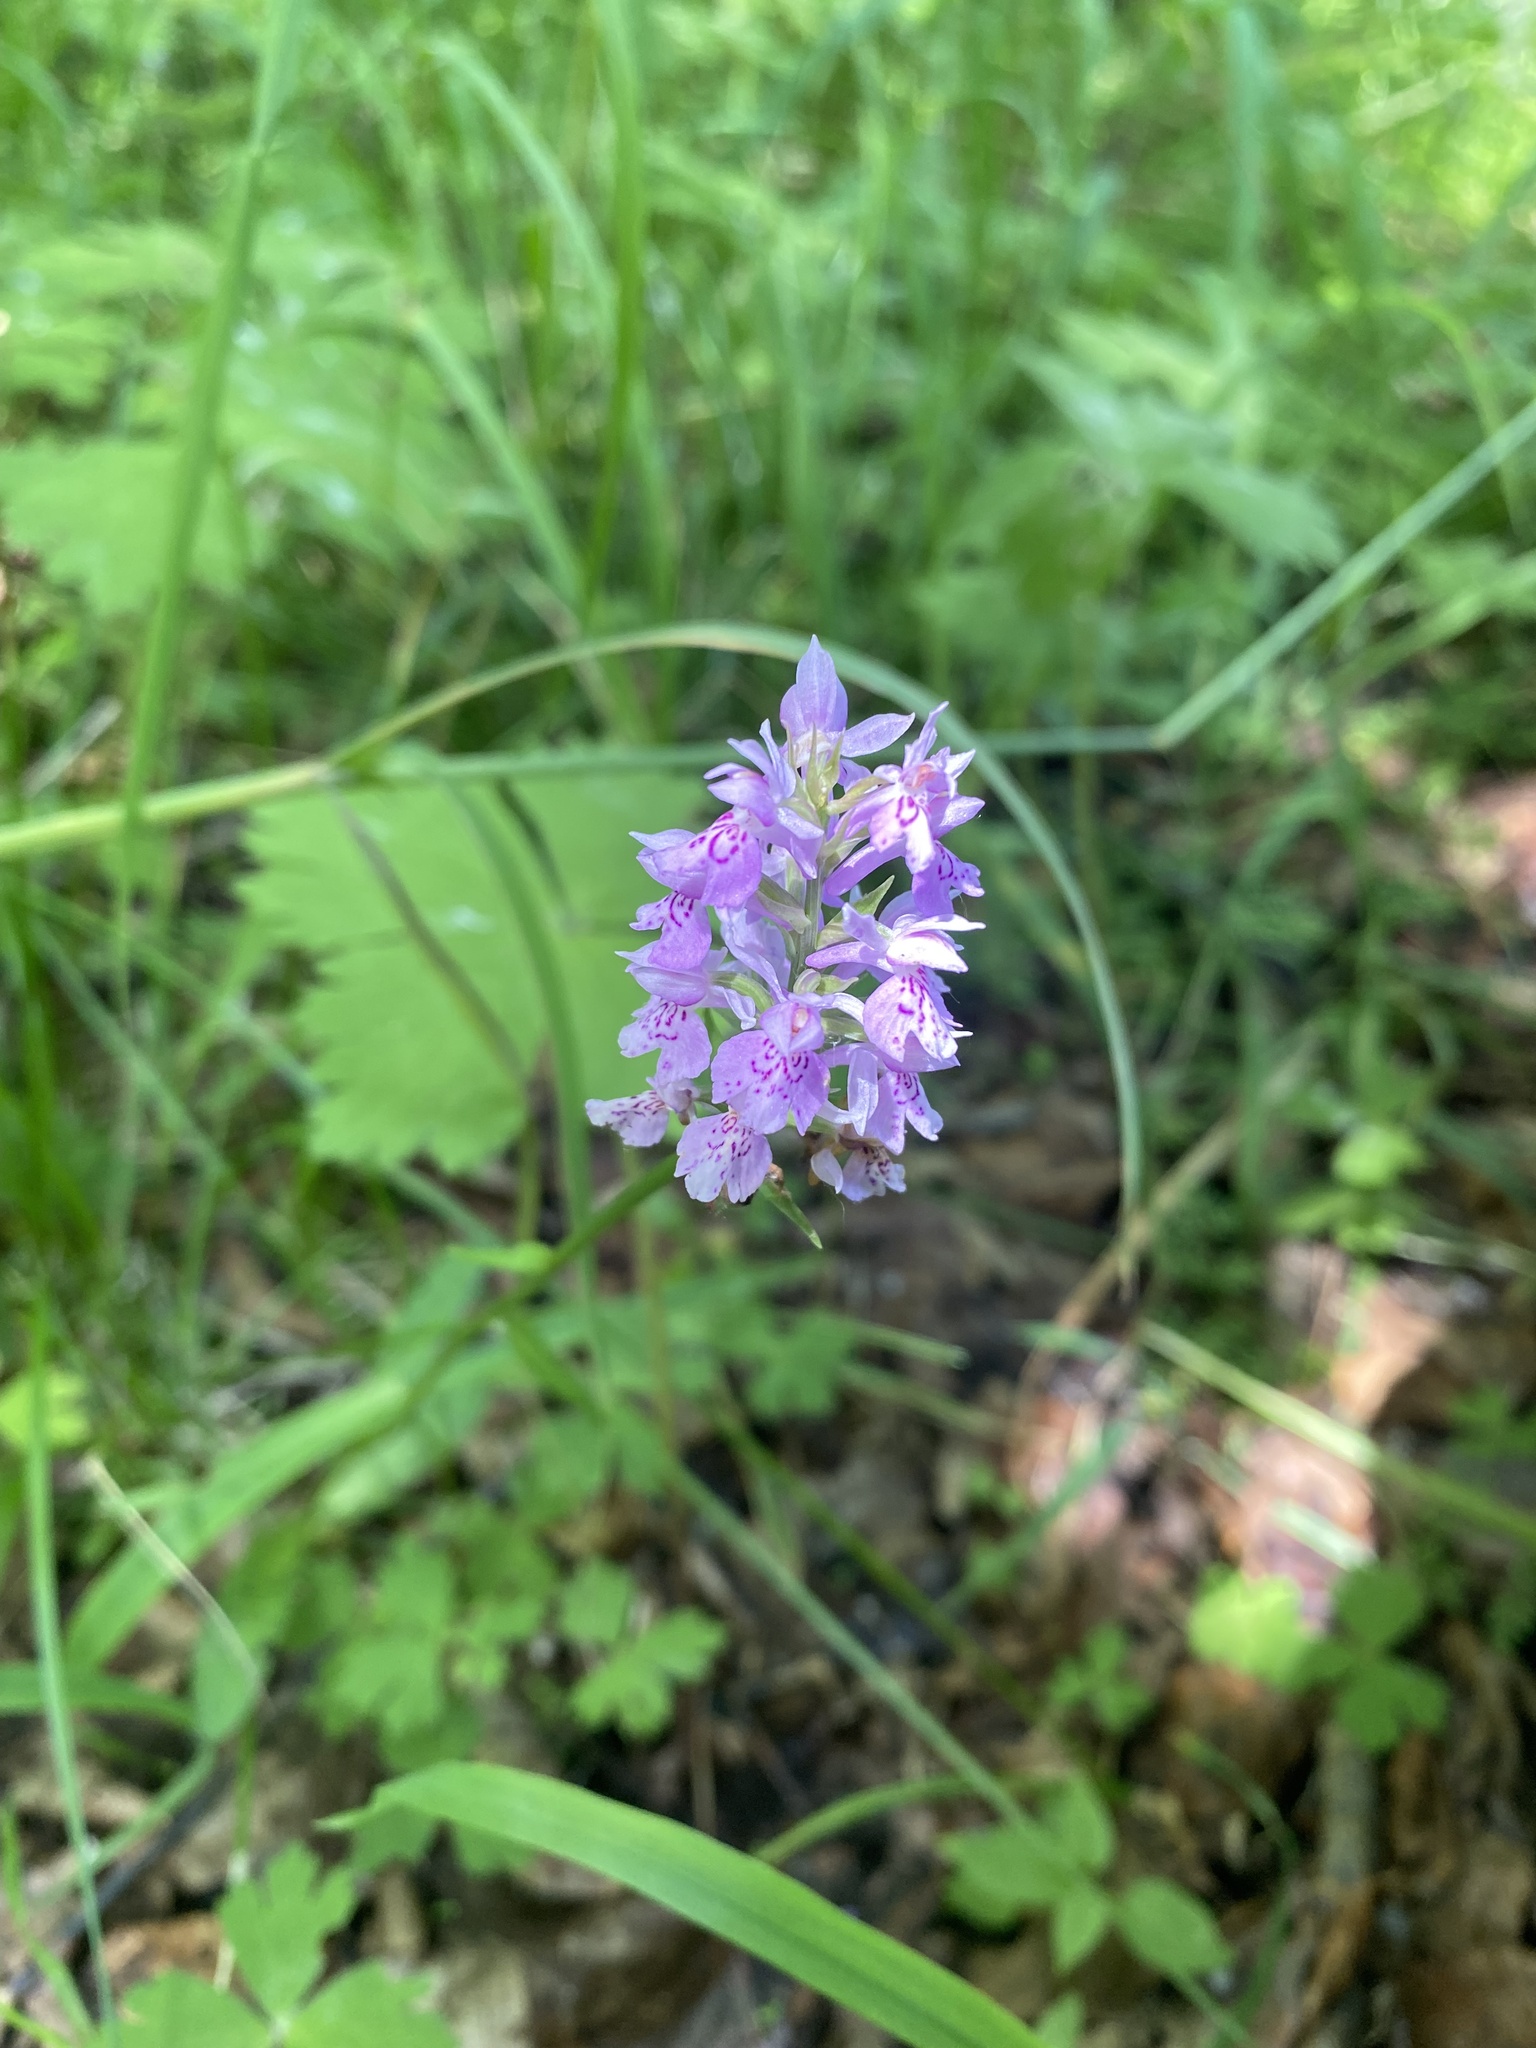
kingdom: Plantae
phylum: Tracheophyta
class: Liliopsida
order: Asparagales
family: Orchidaceae
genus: Dactylorhiza
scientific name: Dactylorhiza maculata
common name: Heath spotted-orchid
